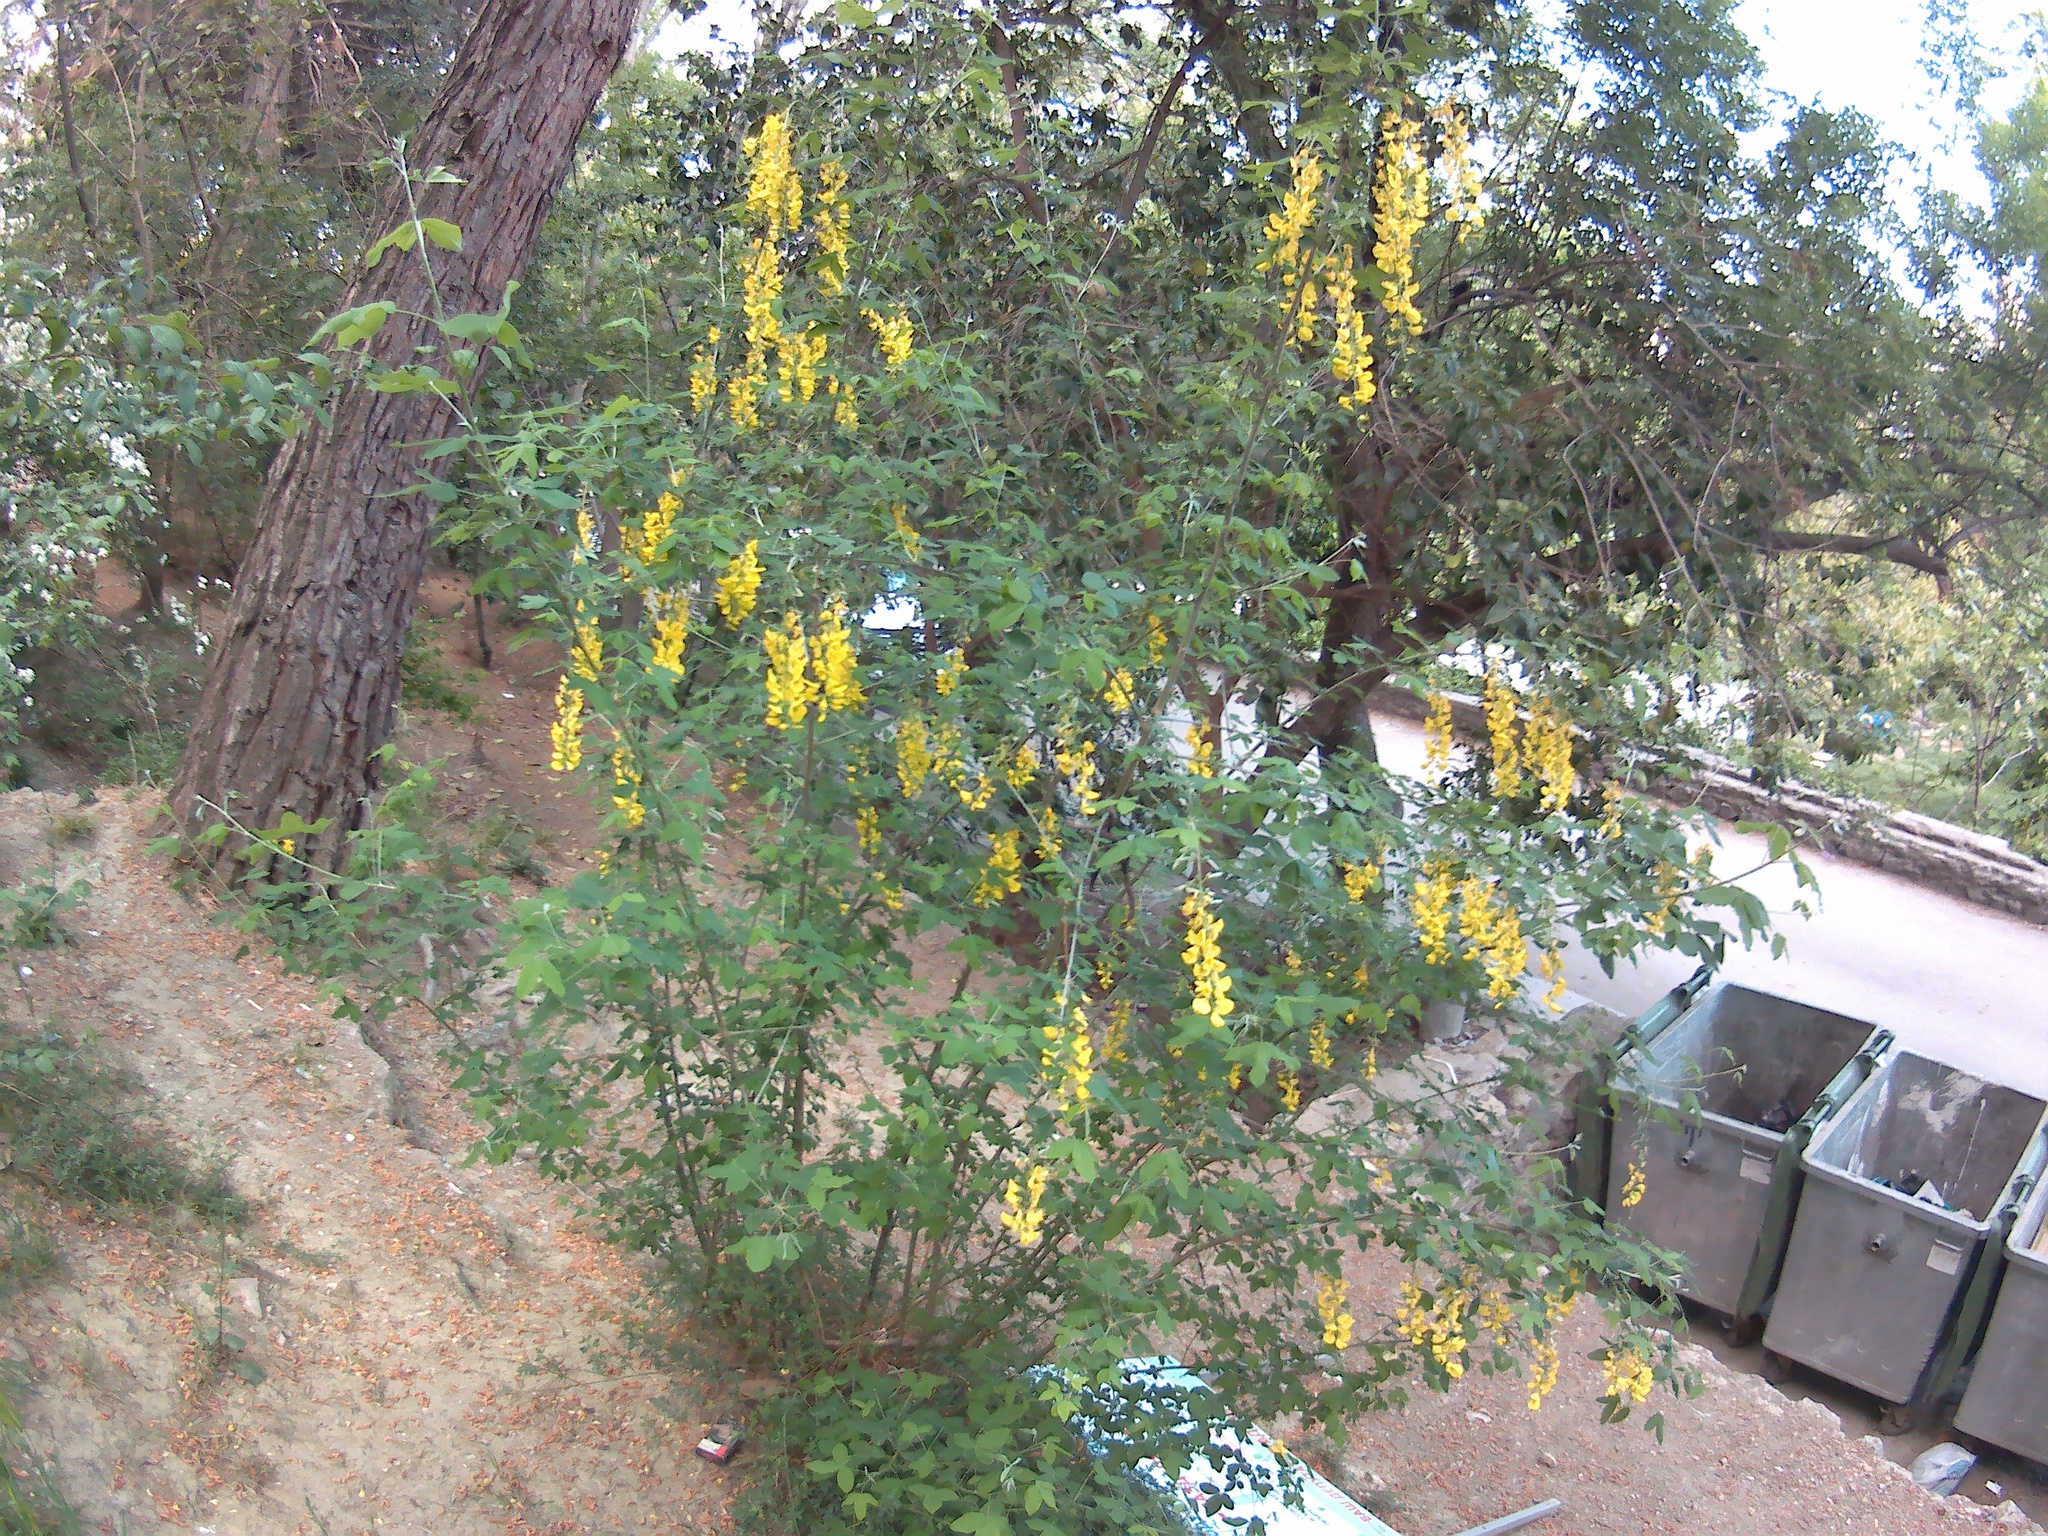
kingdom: Plantae
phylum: Tracheophyta
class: Magnoliopsida
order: Fabales
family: Fabaceae
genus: Laburnum
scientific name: Laburnum anagyroides
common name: Laburnum
